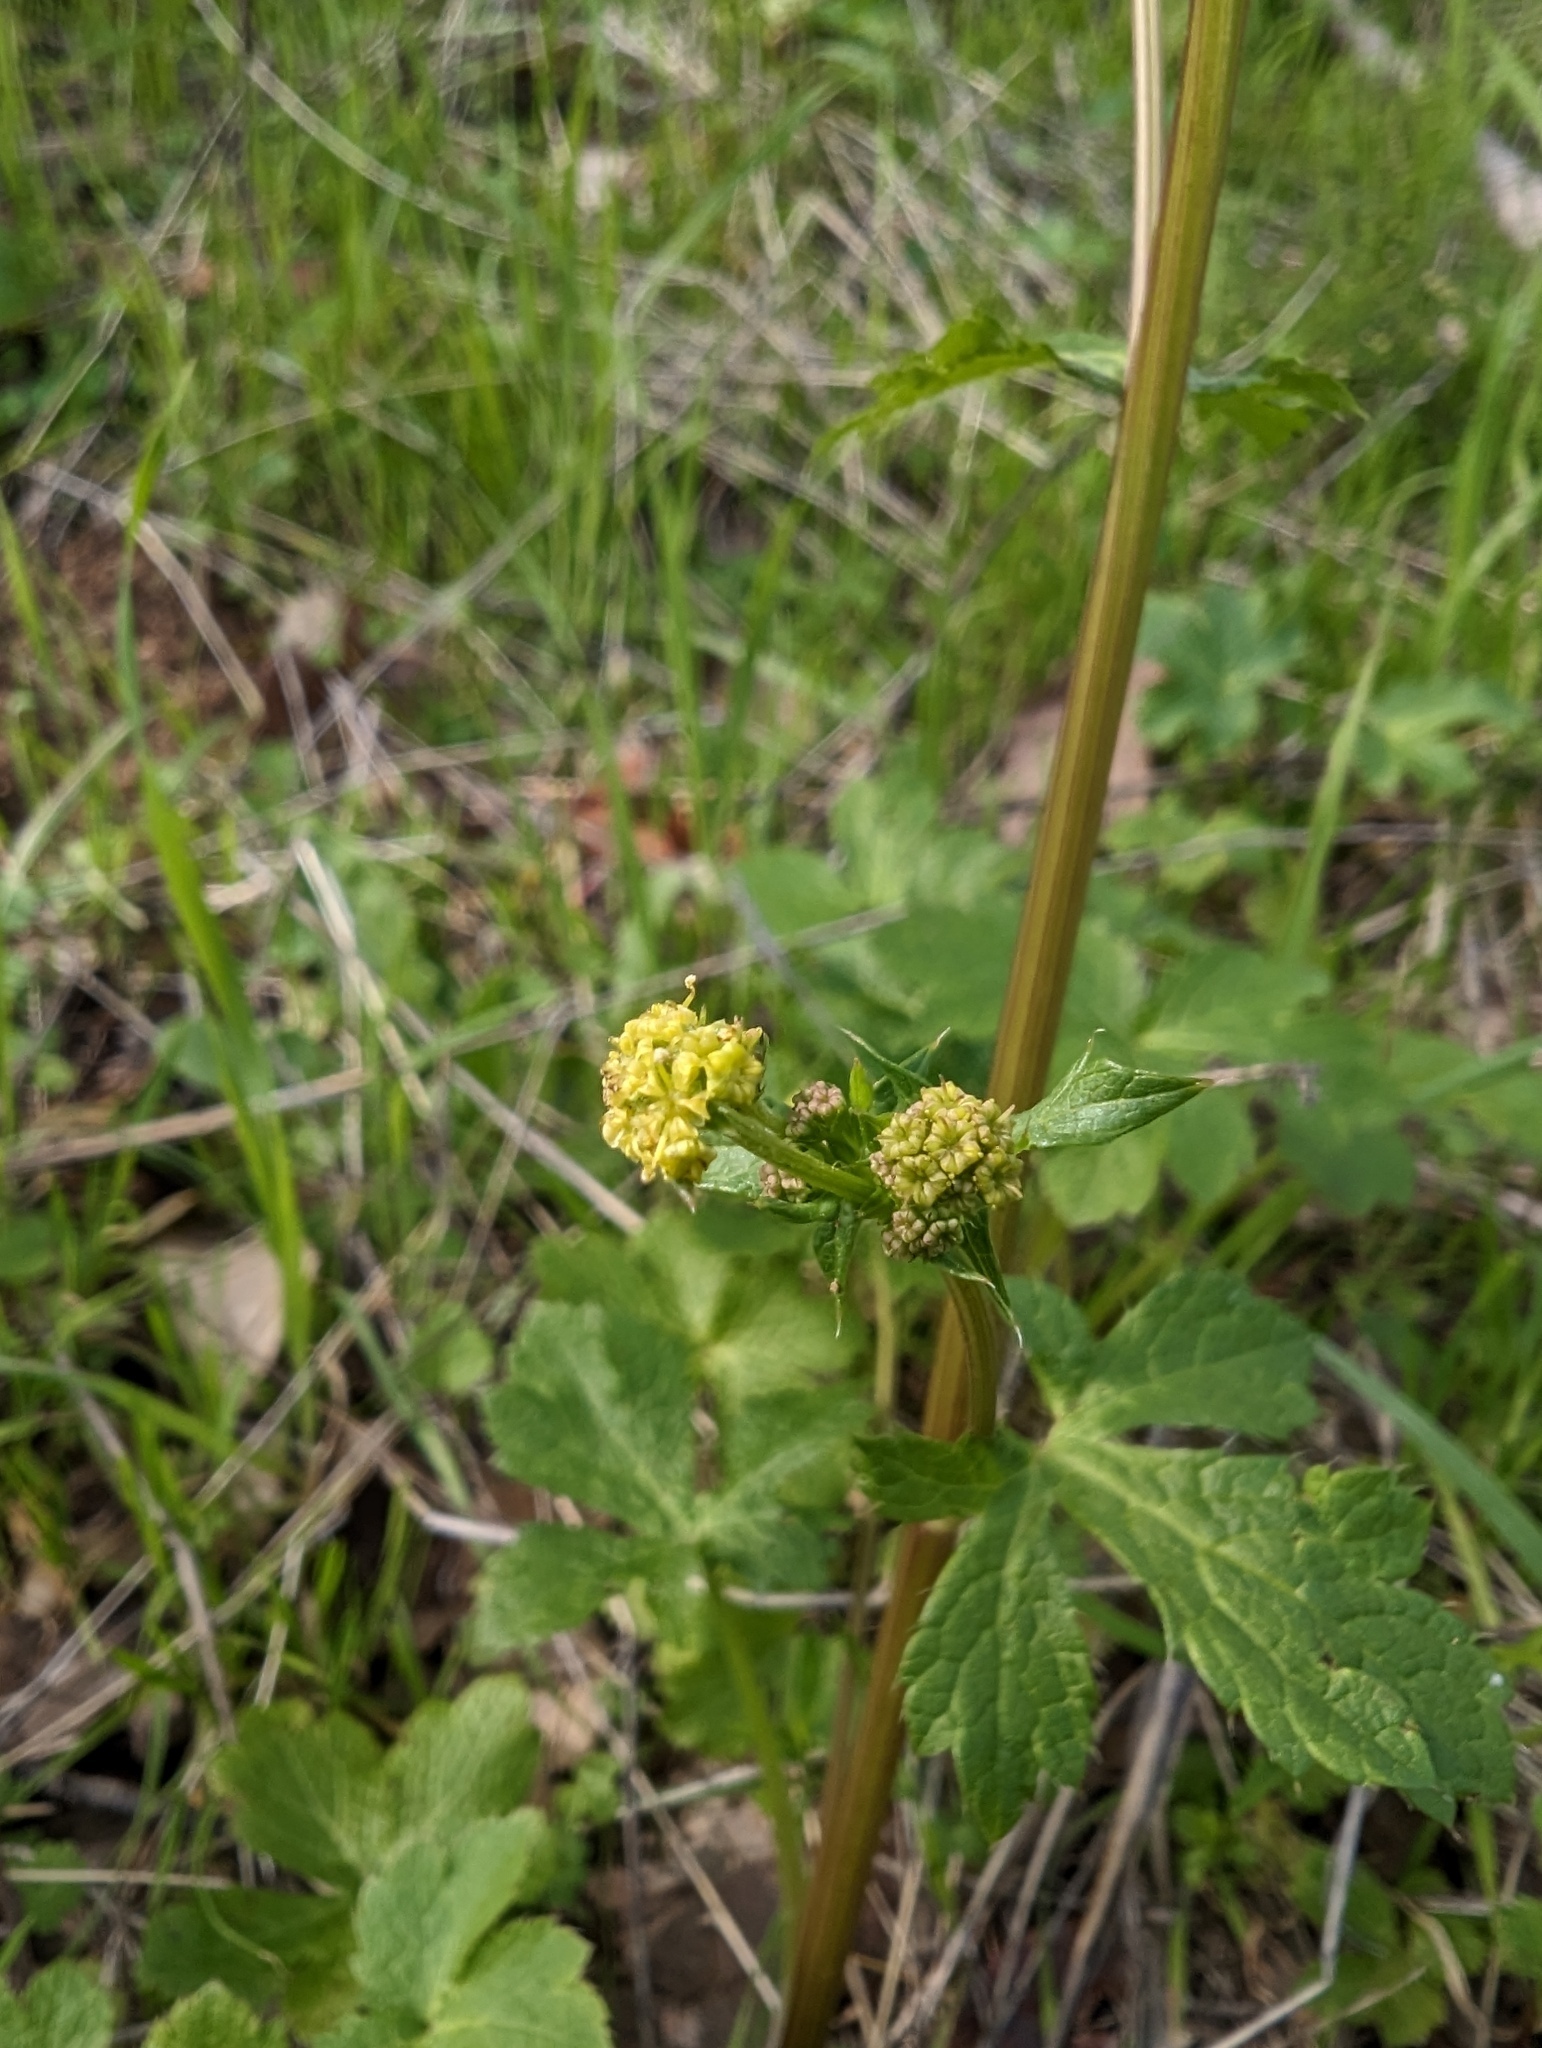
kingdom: Plantae
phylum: Tracheophyta
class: Magnoliopsida
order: Apiales
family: Apiaceae
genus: Sanicula
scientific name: Sanicula crassicaulis
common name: Western snakeroot
